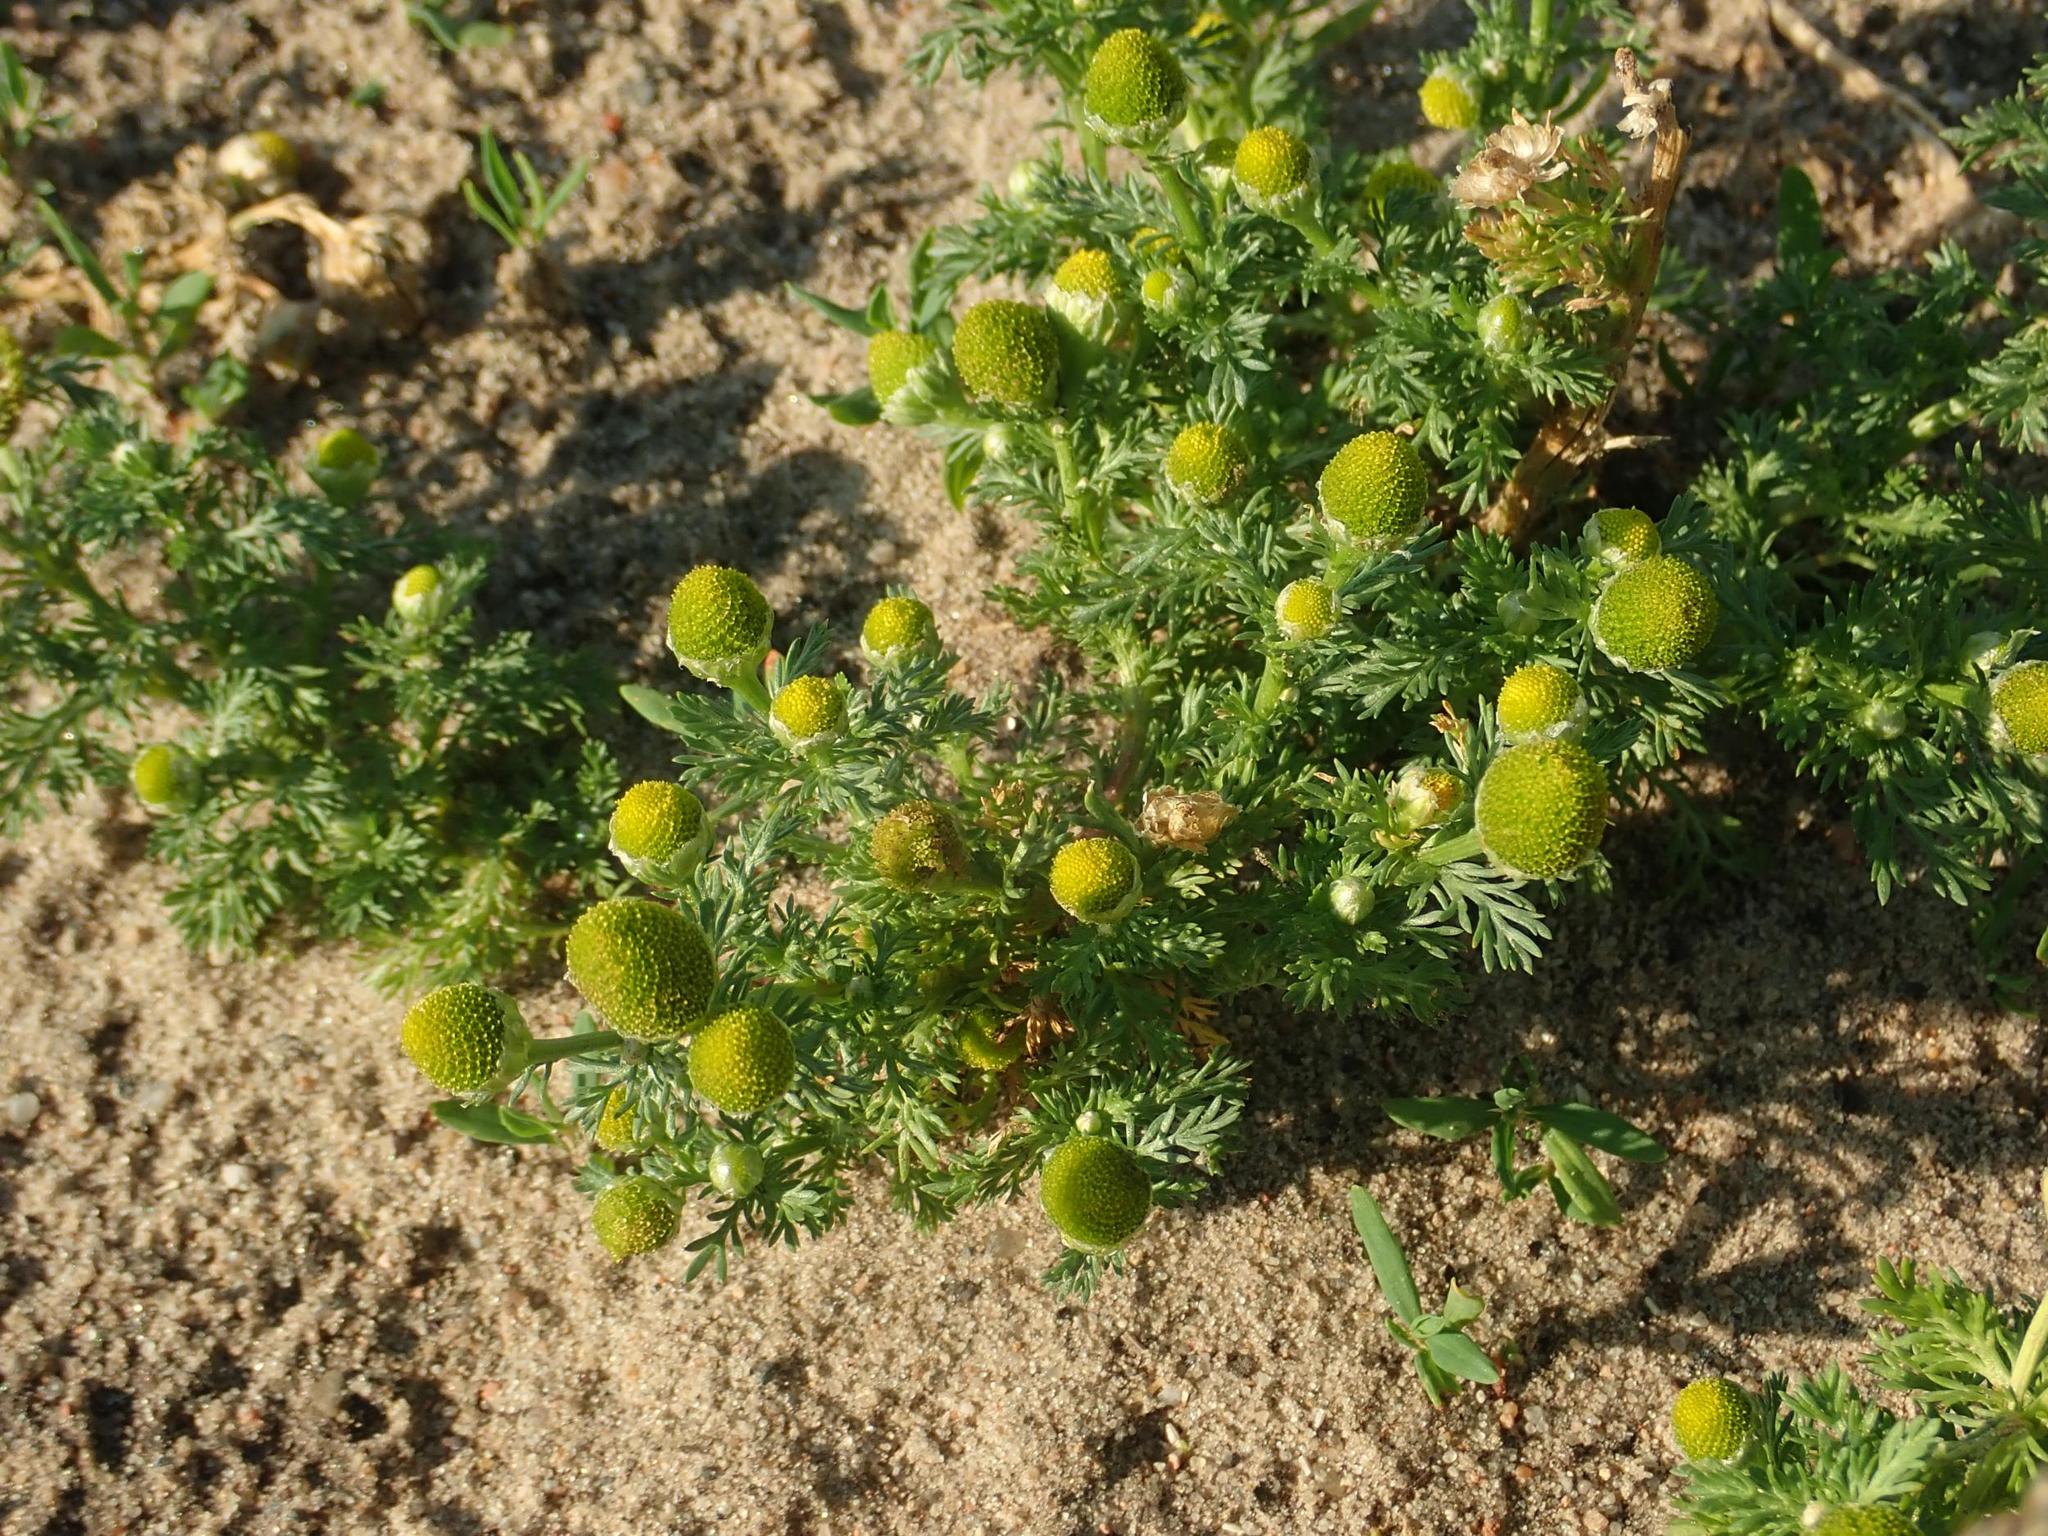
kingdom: Plantae
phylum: Tracheophyta
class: Magnoliopsida
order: Asterales
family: Asteraceae
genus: Matricaria
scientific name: Matricaria discoidea
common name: Disc mayweed
